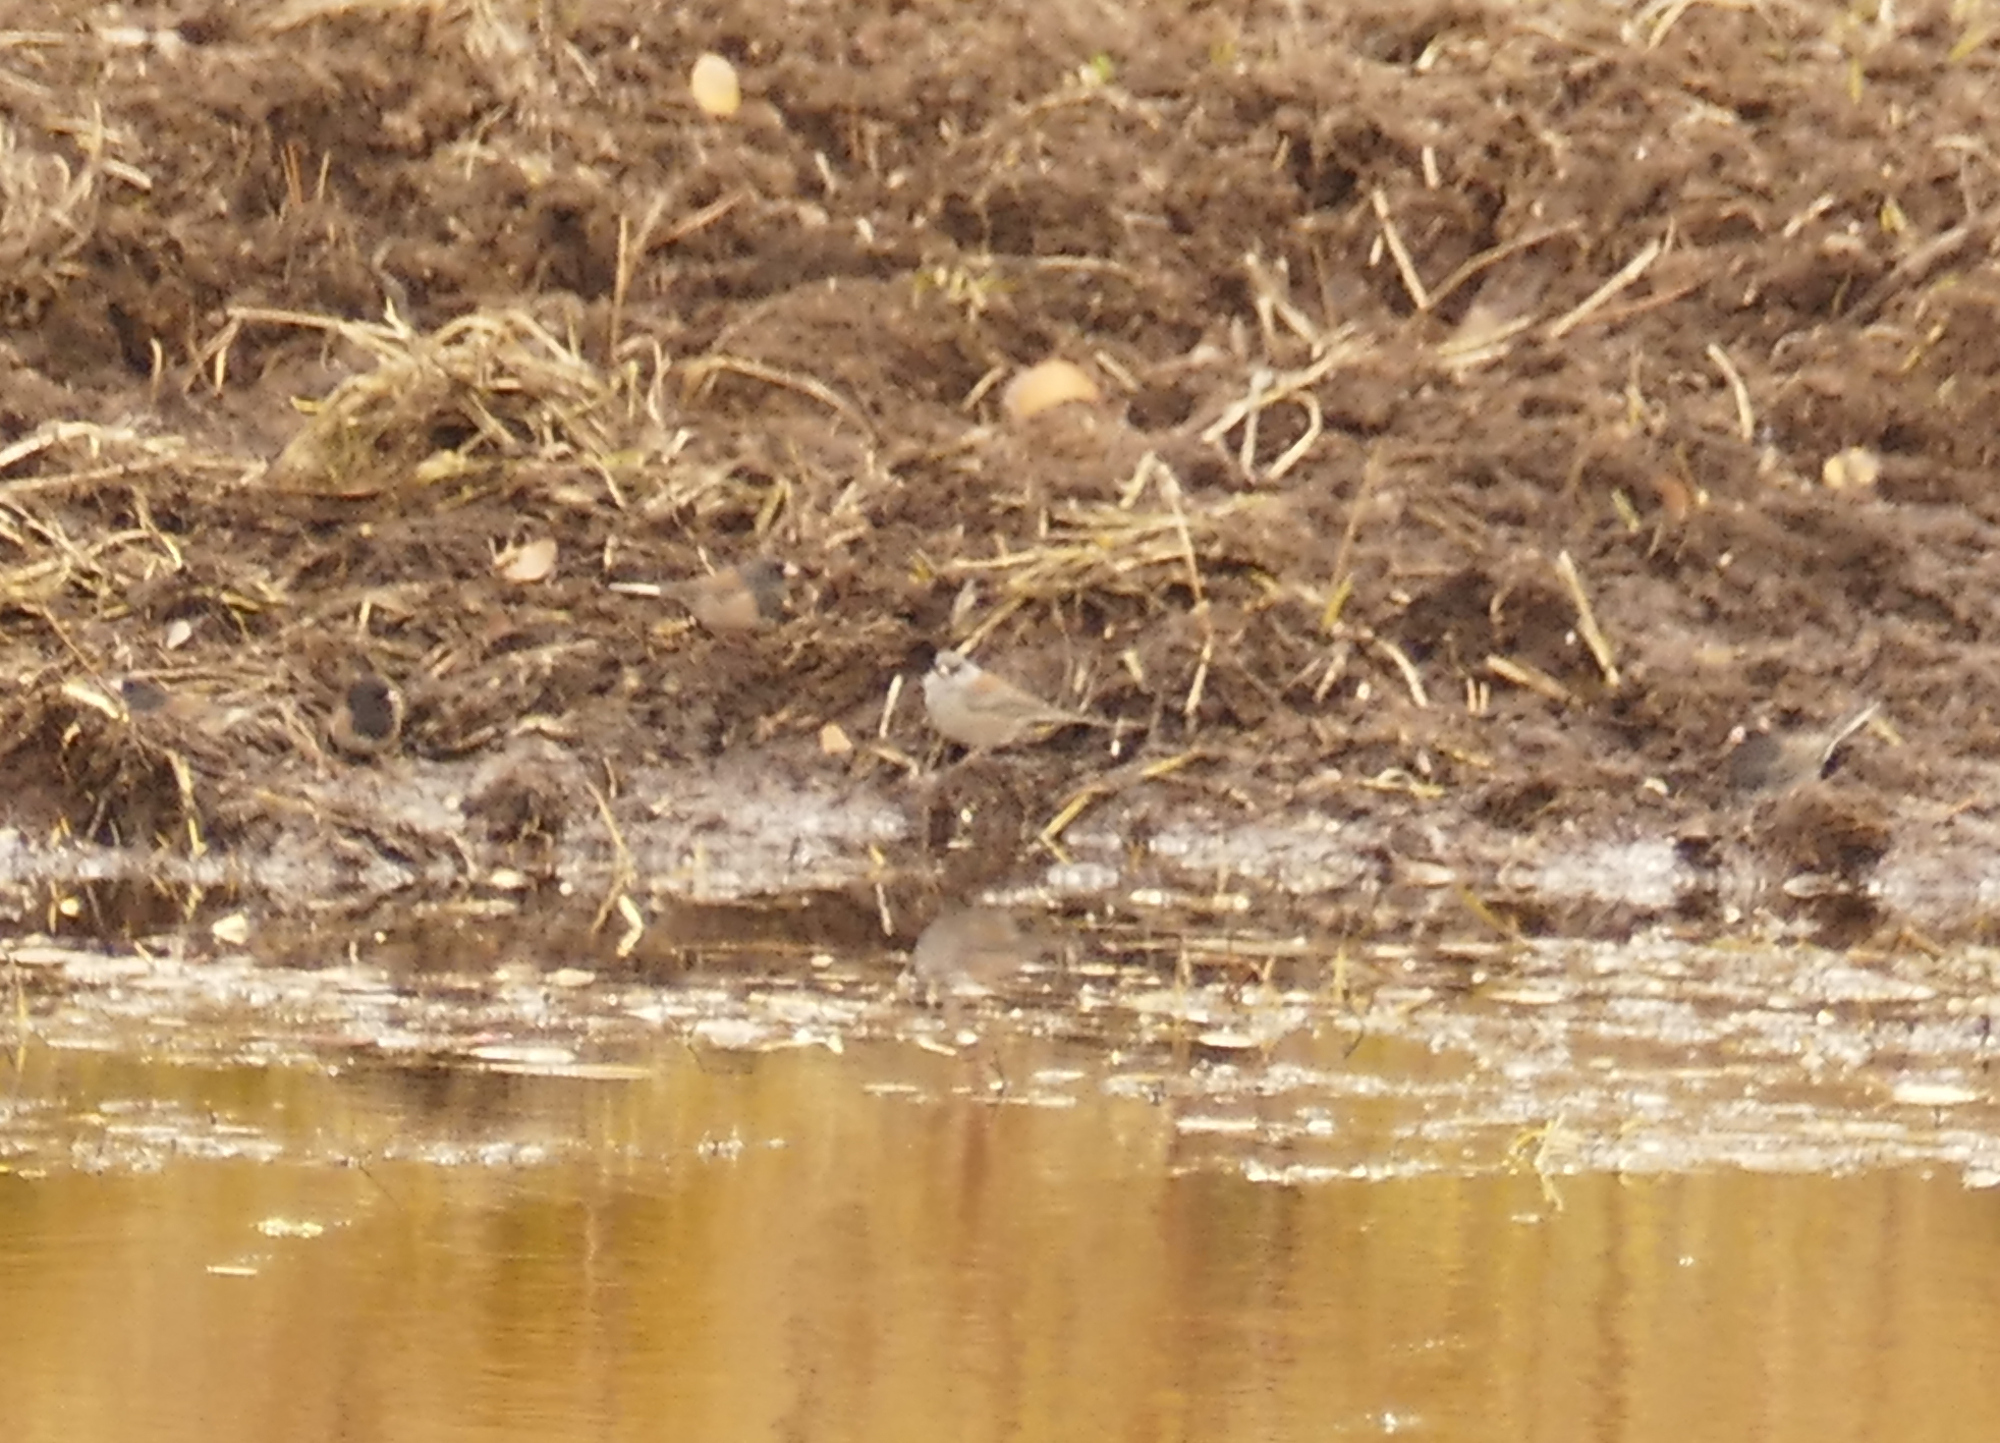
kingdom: Animalia
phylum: Chordata
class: Aves
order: Passeriformes
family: Passerellidae
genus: Junco
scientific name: Junco hyemalis
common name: Dark-eyed junco
